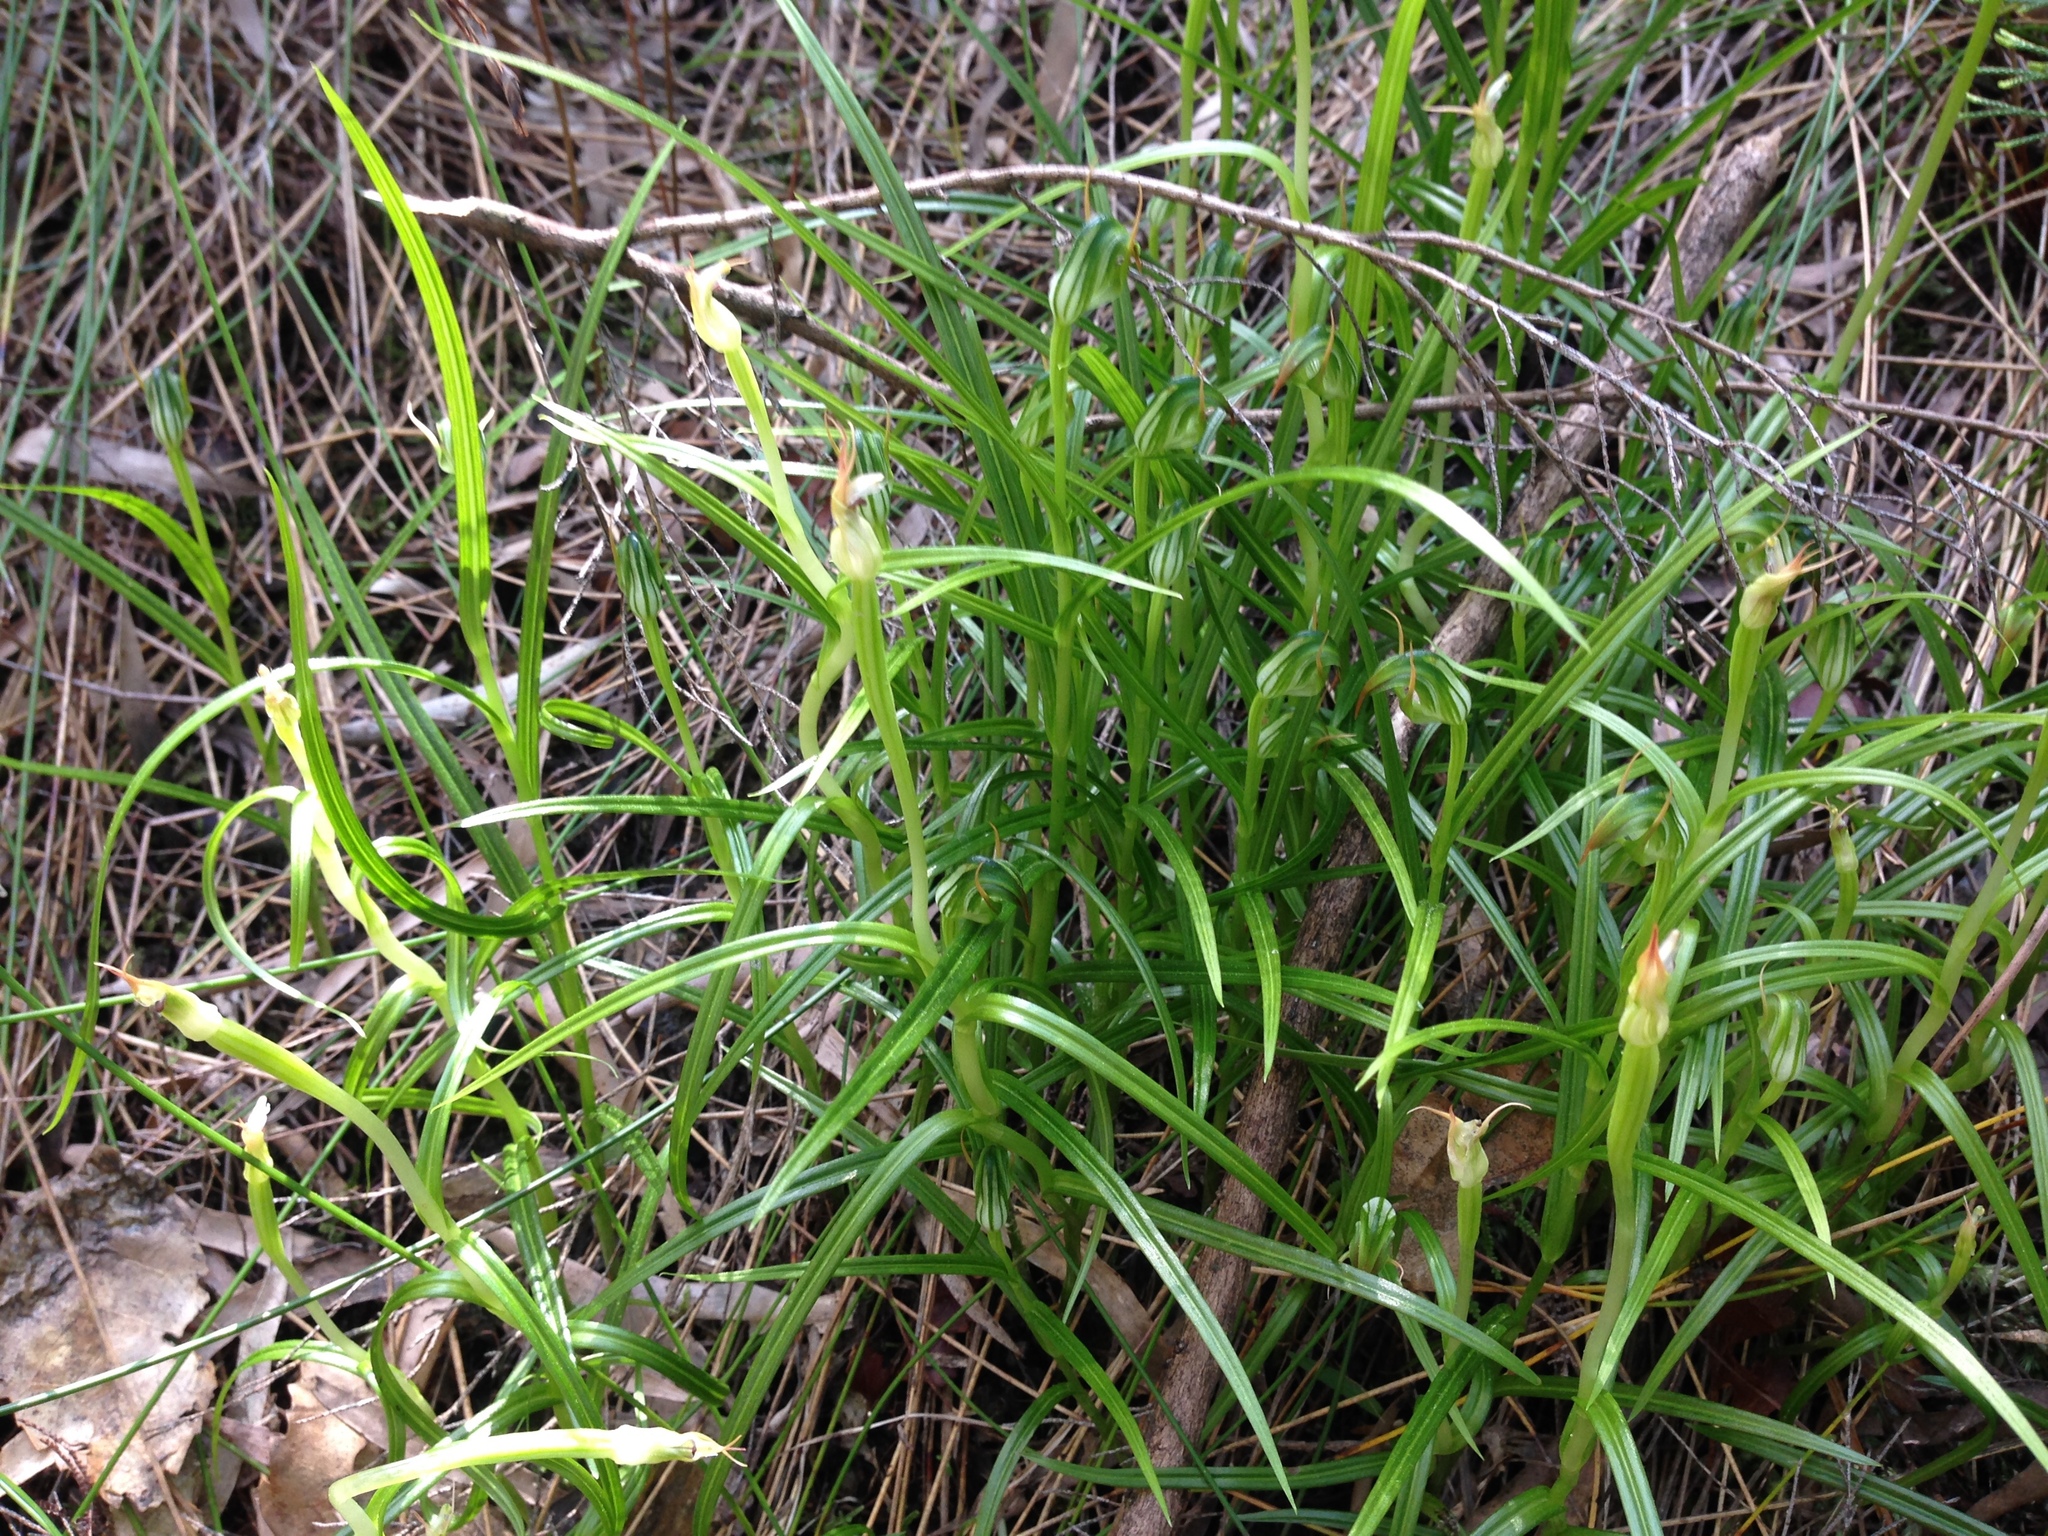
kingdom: Plantae
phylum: Tracheophyta
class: Liliopsida
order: Asparagales
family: Orchidaceae
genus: Pterostylis
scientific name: Pterostylis graminea
